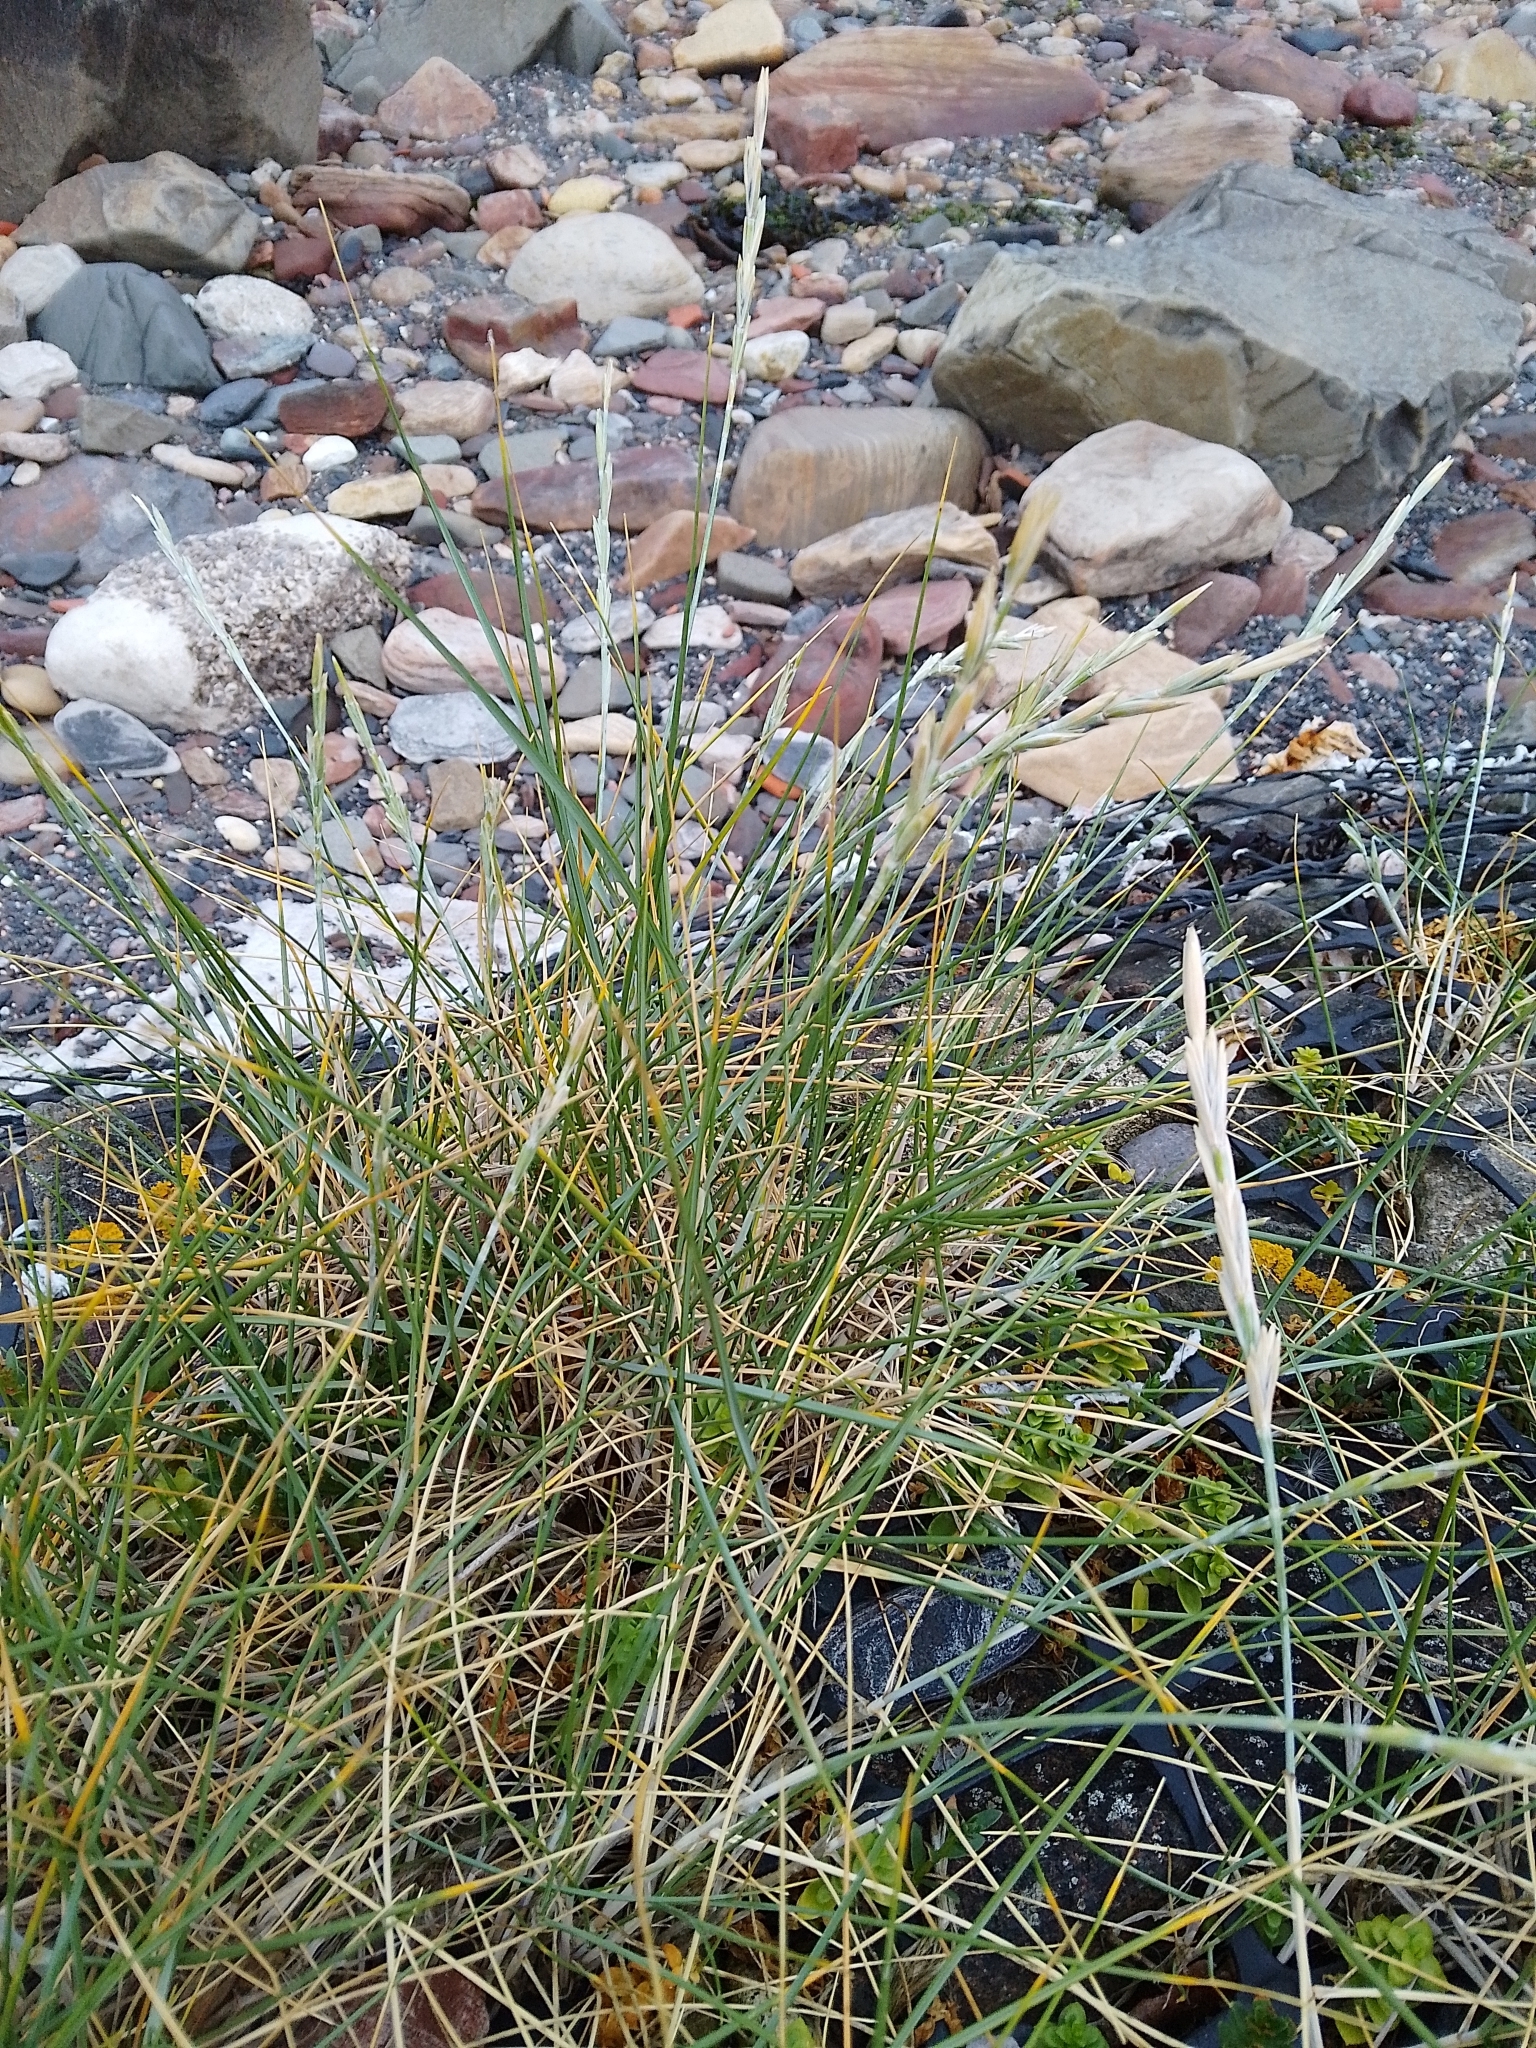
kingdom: Plantae
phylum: Tracheophyta
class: Liliopsida
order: Poales
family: Poaceae
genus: Thinopyrum
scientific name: Thinopyrum junceum
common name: Russian wheatgrass
